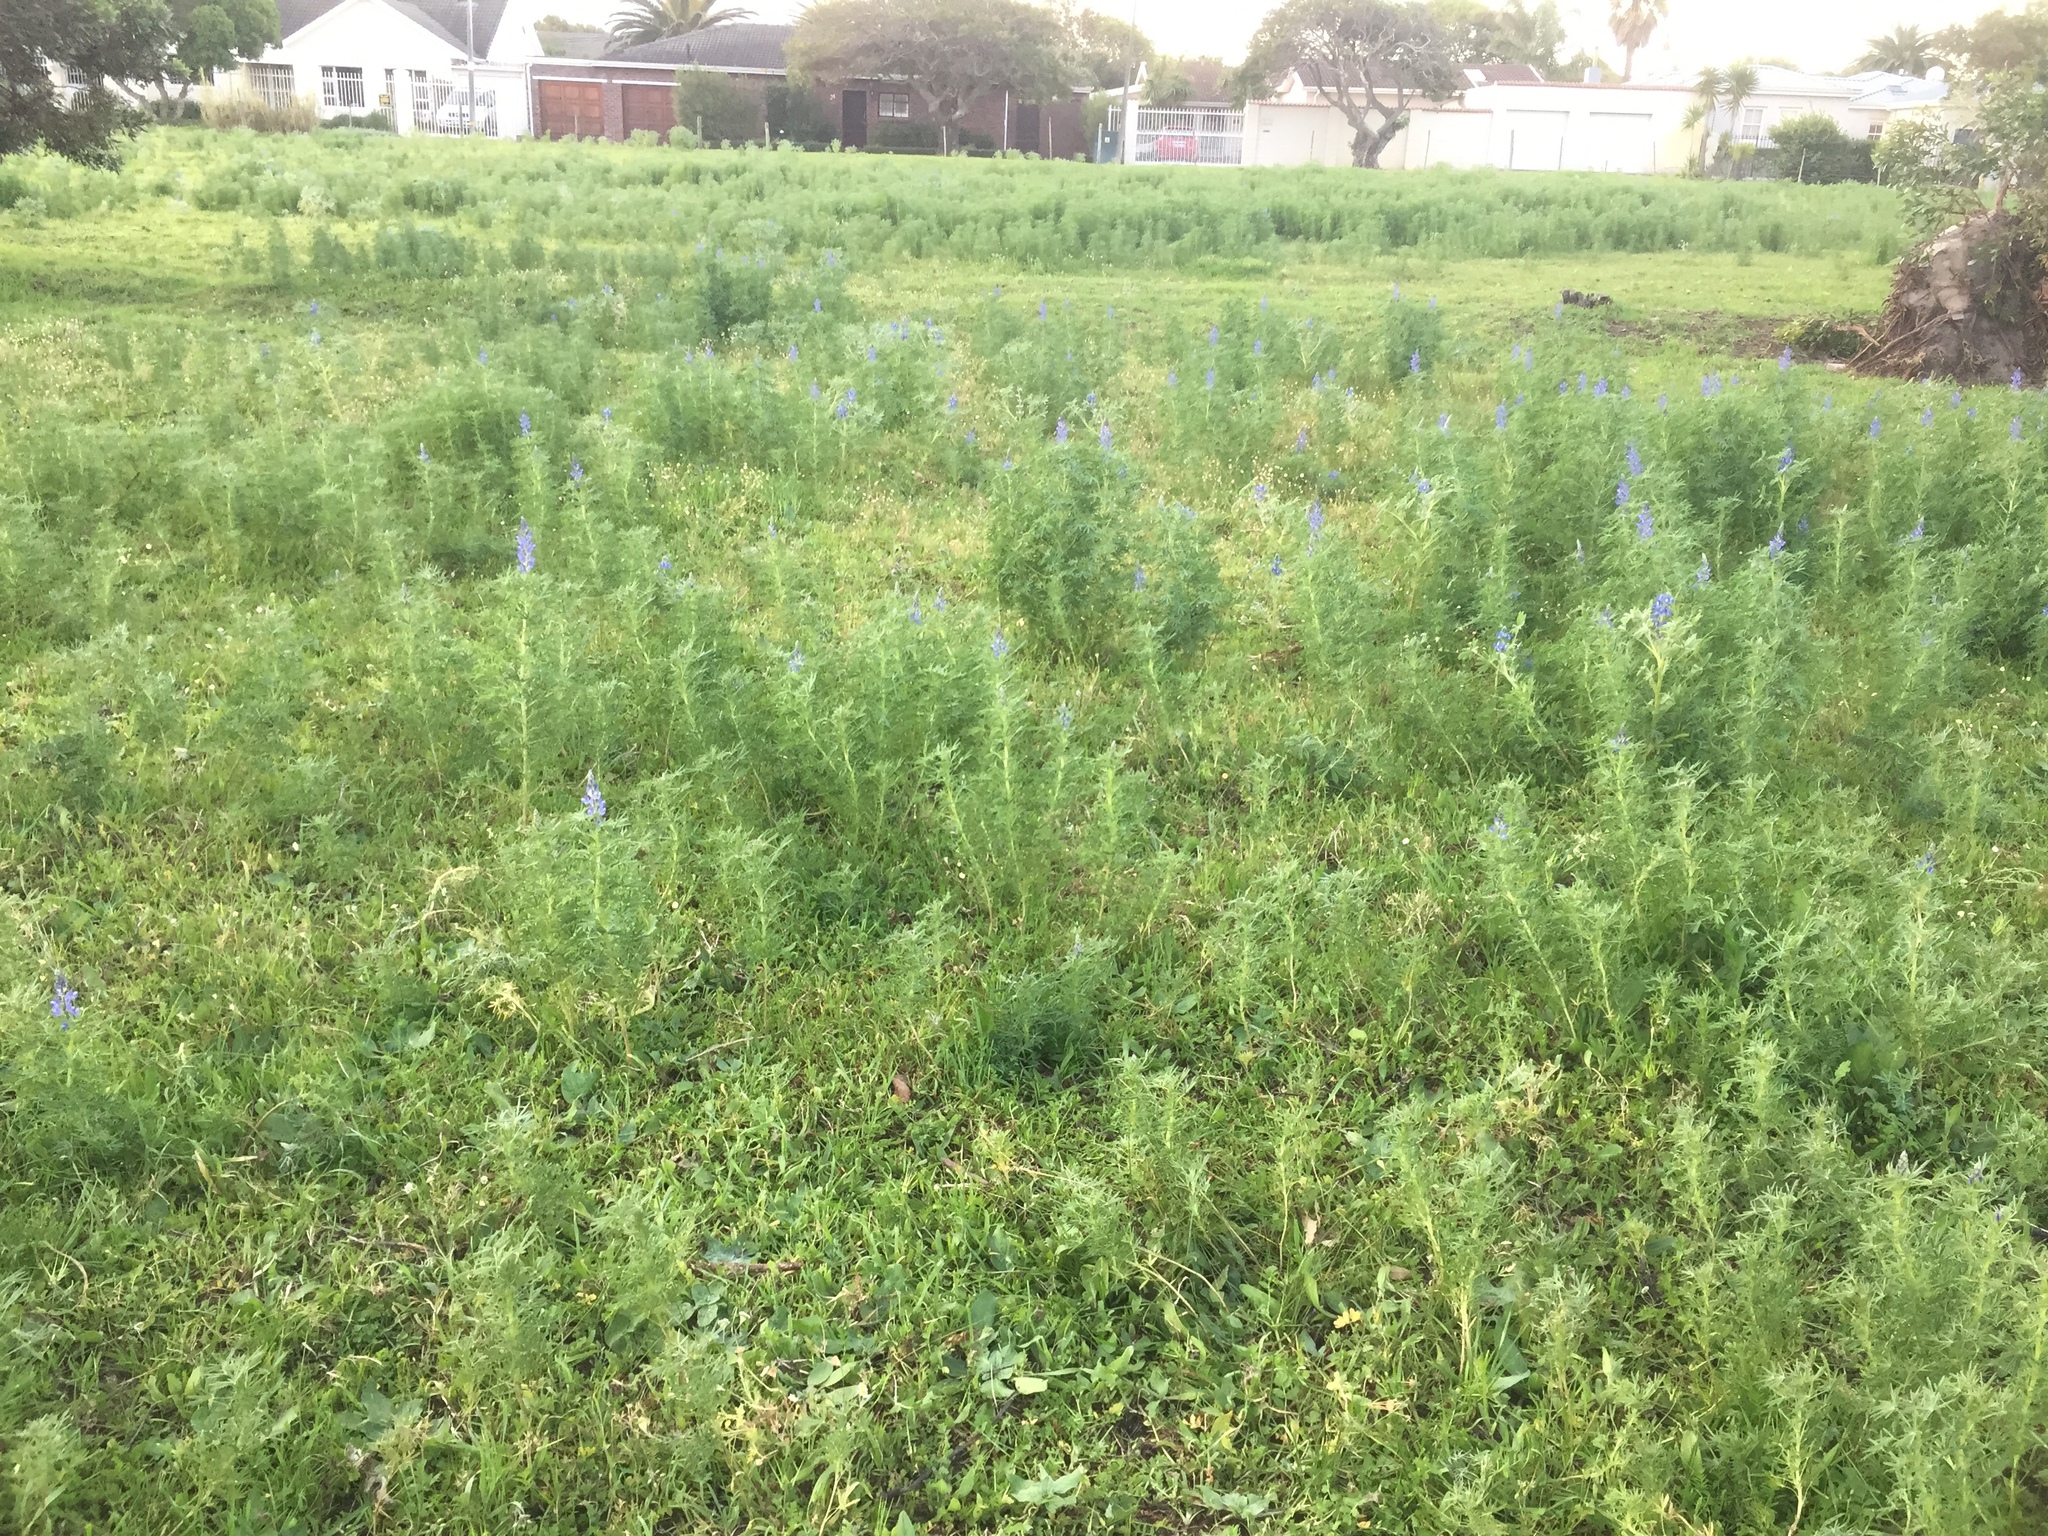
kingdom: Plantae
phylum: Tracheophyta
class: Magnoliopsida
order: Fabales
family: Fabaceae
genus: Lupinus
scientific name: Lupinus angustifolius
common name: Narrow-leaved lupin
